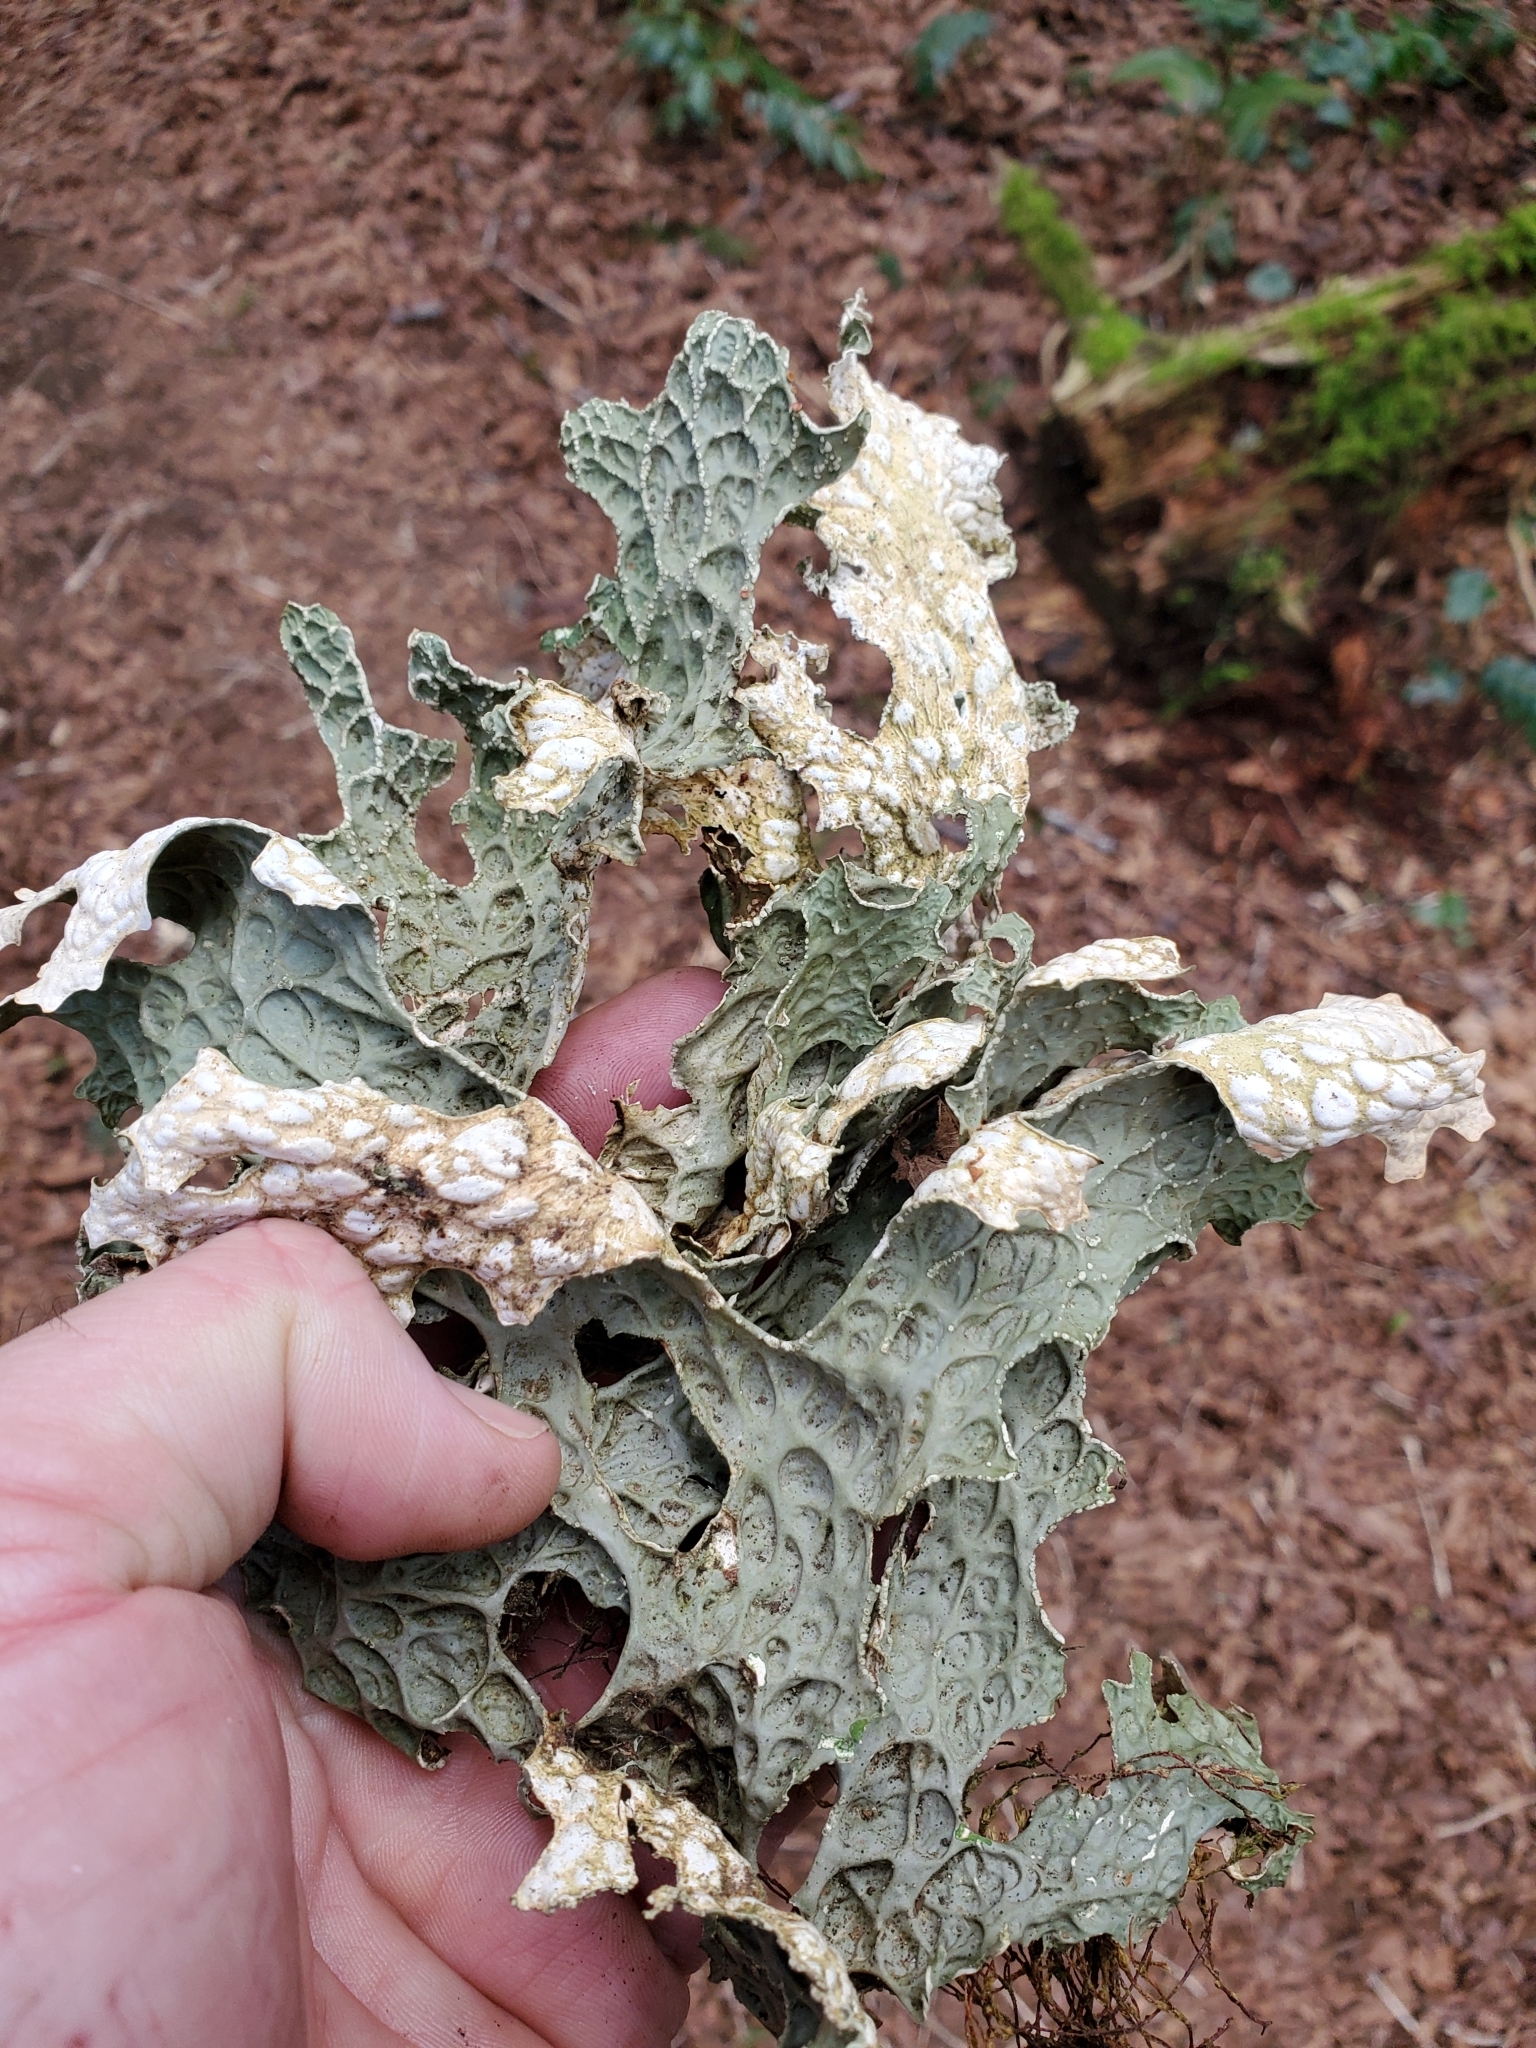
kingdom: Fungi
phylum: Ascomycota
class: Lecanoromycetes
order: Peltigerales
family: Lobariaceae
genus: Lobaria
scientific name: Lobaria pulmonaria
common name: Lungwort
